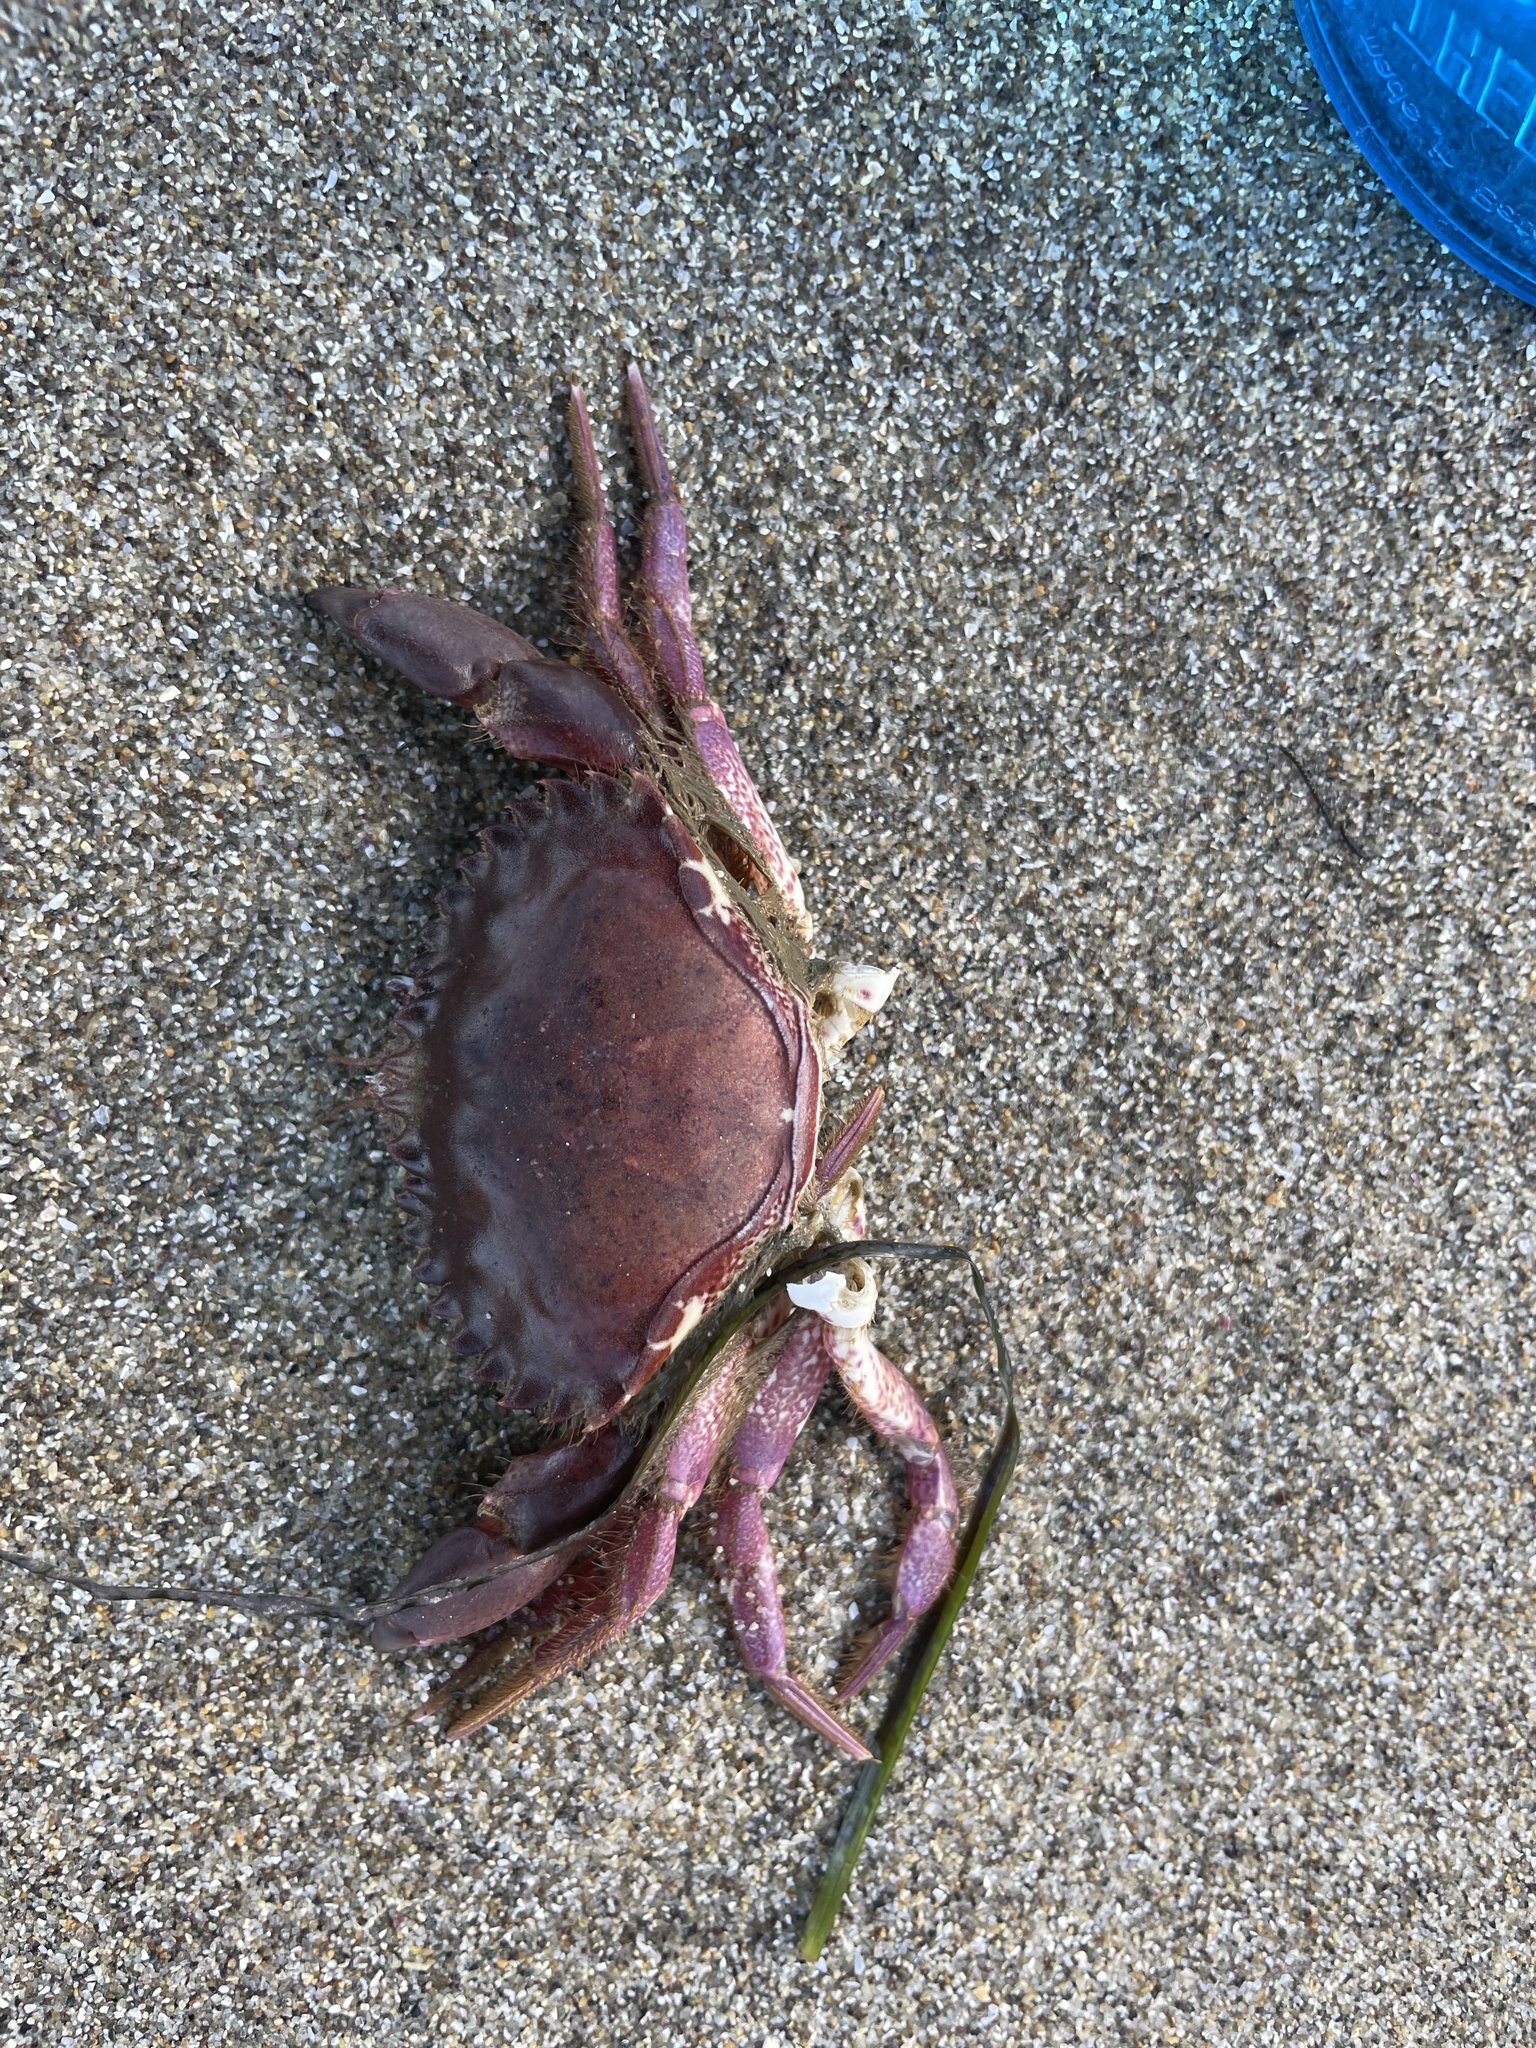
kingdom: Animalia
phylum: Arthropoda
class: Malacostraca
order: Decapoda
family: Cancridae
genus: Romaleon
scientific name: Romaleon antennarium
